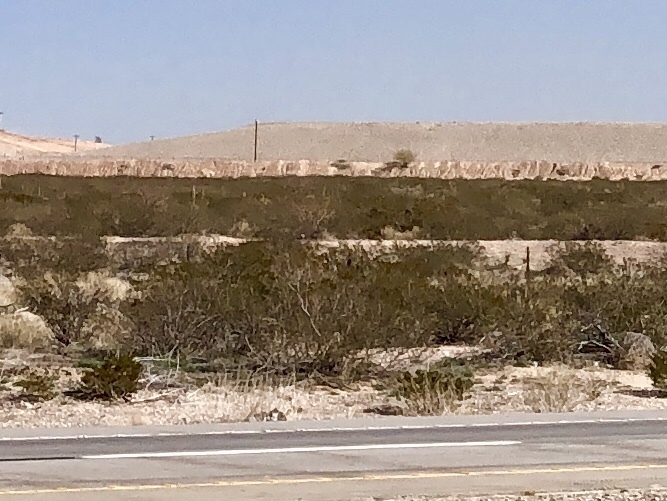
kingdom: Plantae
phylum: Tracheophyta
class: Magnoliopsida
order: Zygophyllales
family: Zygophyllaceae
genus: Larrea
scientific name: Larrea tridentata
